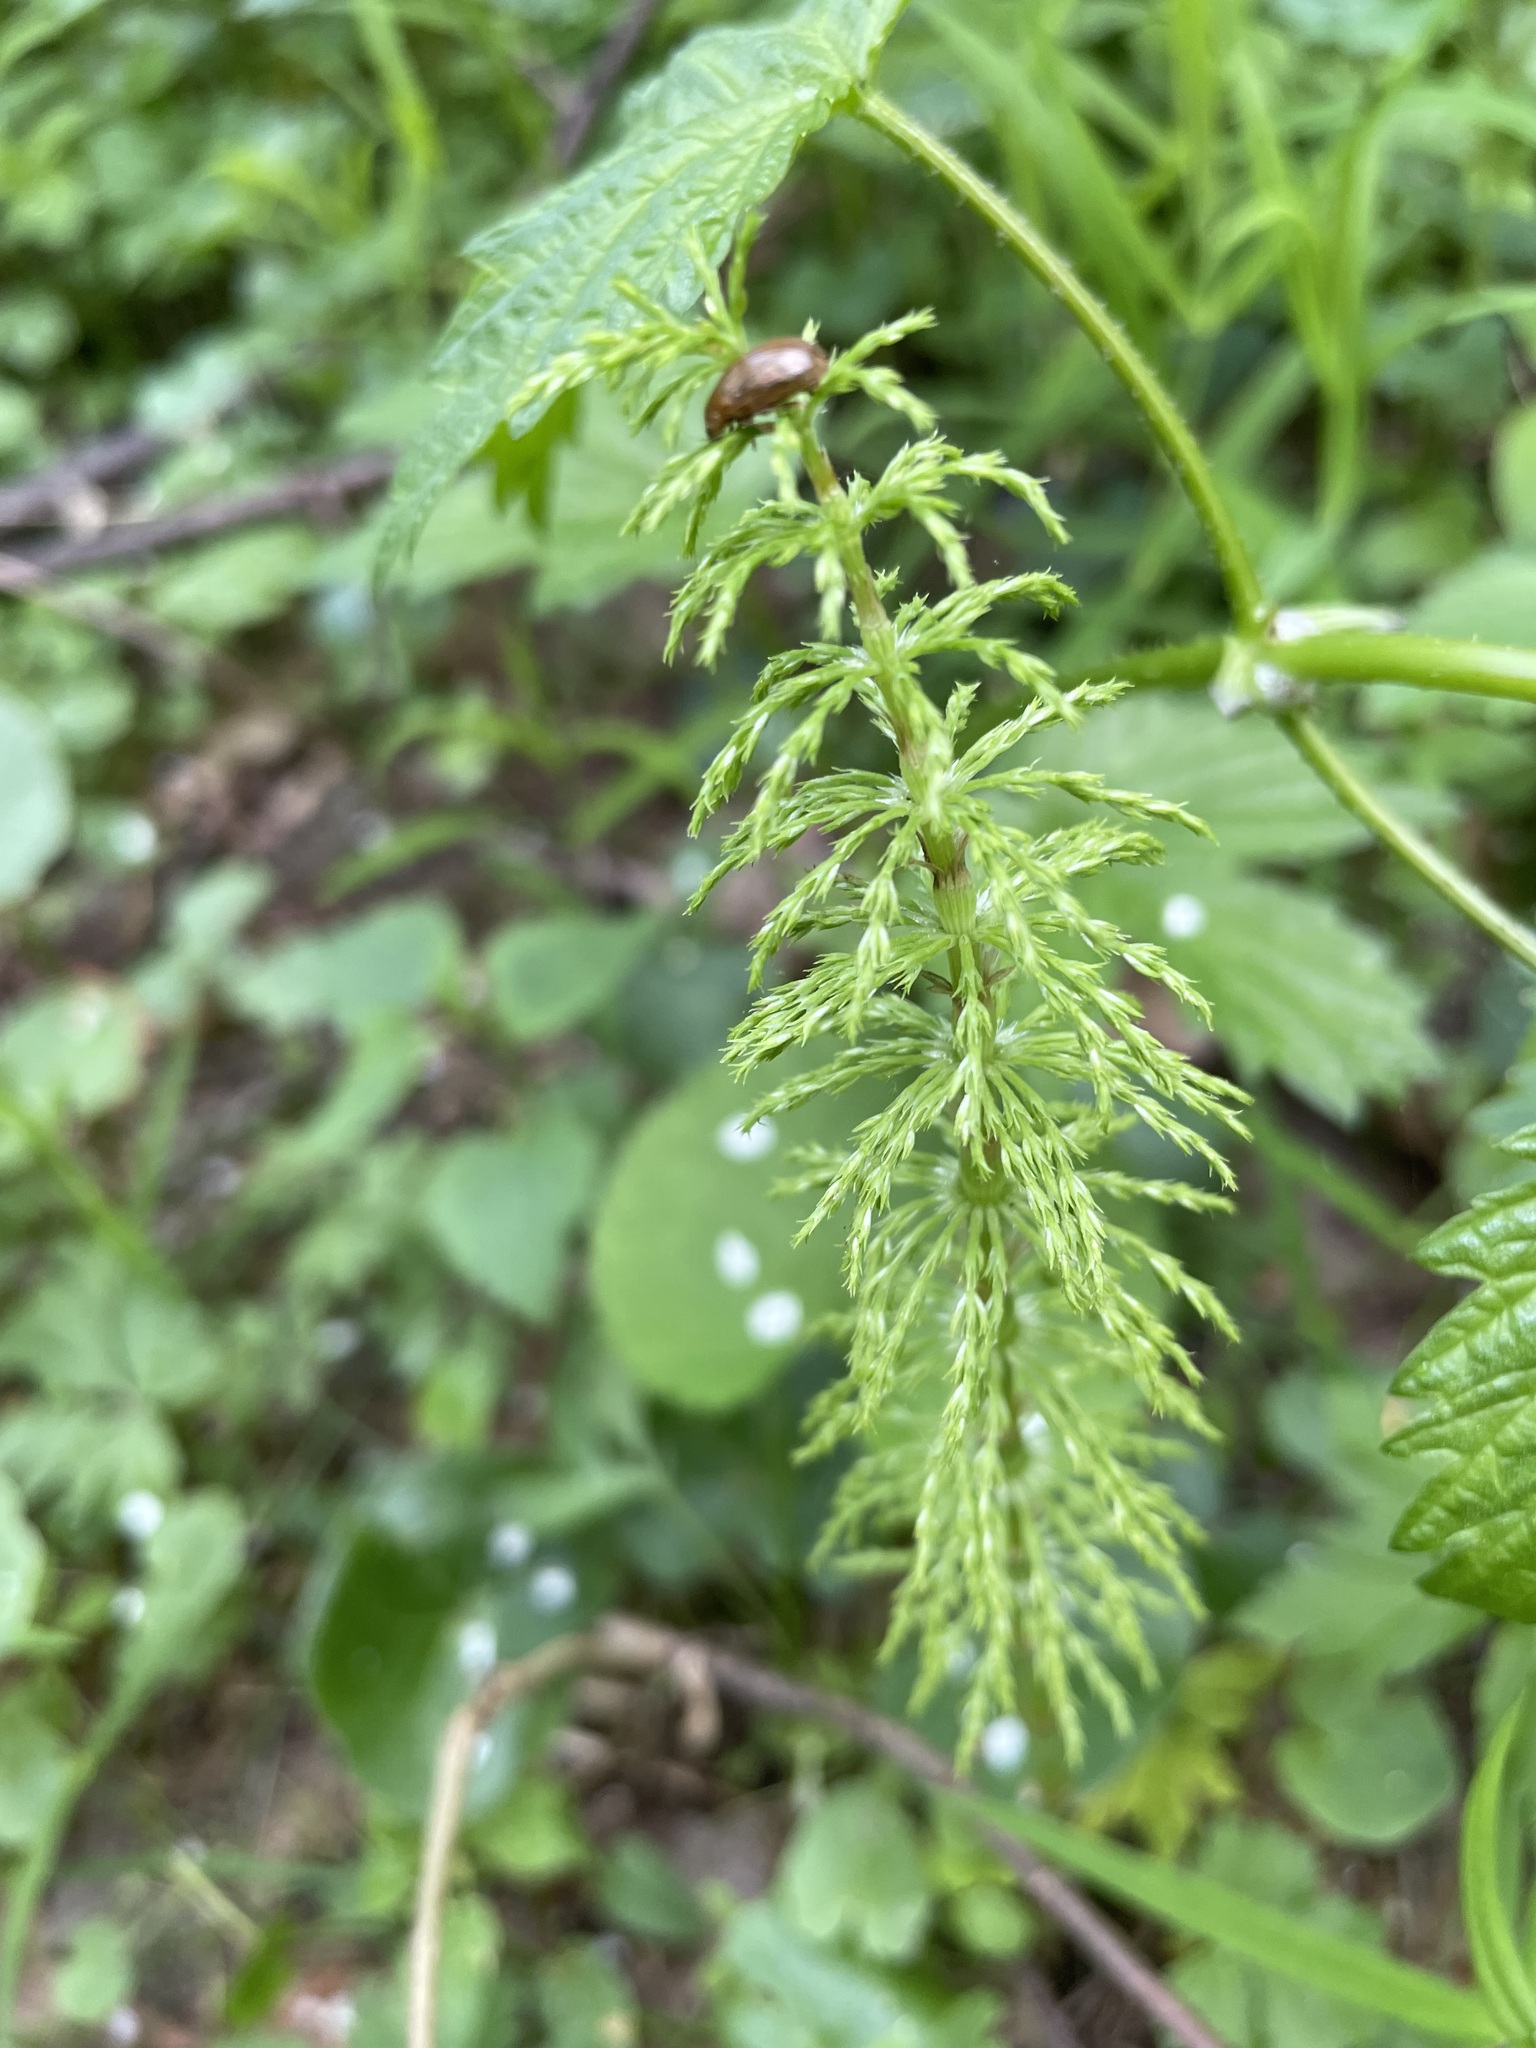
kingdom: Plantae
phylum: Tracheophyta
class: Polypodiopsida
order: Equisetales
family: Equisetaceae
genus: Equisetum
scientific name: Equisetum sylvaticum
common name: Wood horsetail
